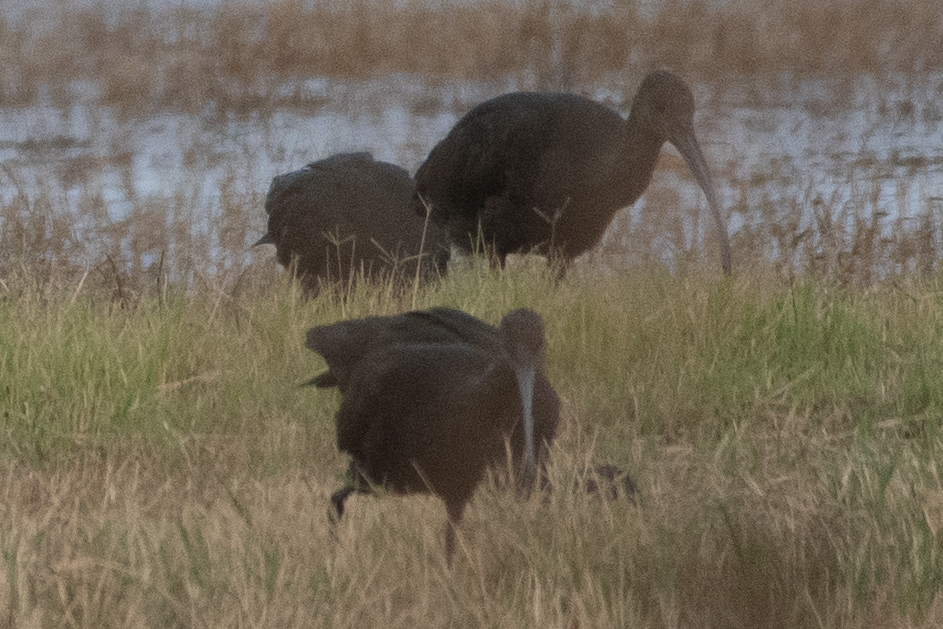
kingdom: Animalia
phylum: Chordata
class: Aves
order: Pelecaniformes
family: Threskiornithidae
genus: Plegadis
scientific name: Plegadis chihi
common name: White-faced ibis
